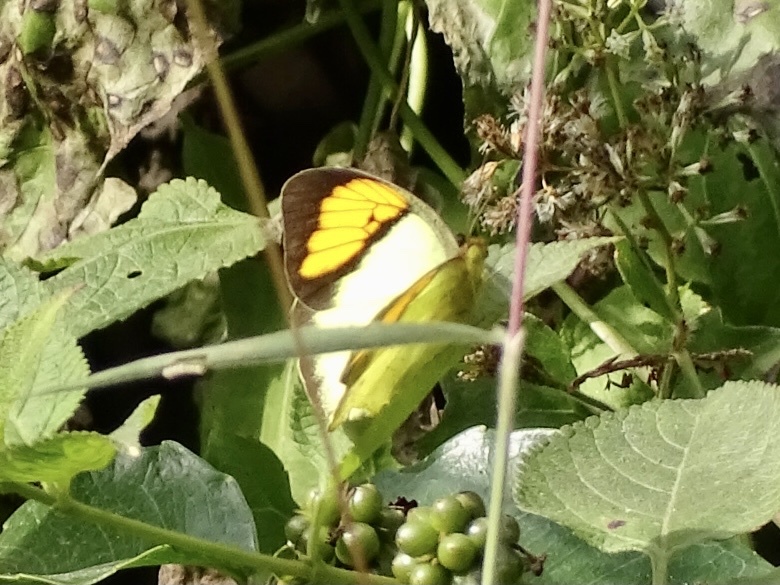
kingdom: Animalia
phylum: Arthropoda
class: Insecta
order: Lepidoptera
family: Pieridae
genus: Ixias
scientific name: Ixias pyrene
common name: Yellow orange tip
